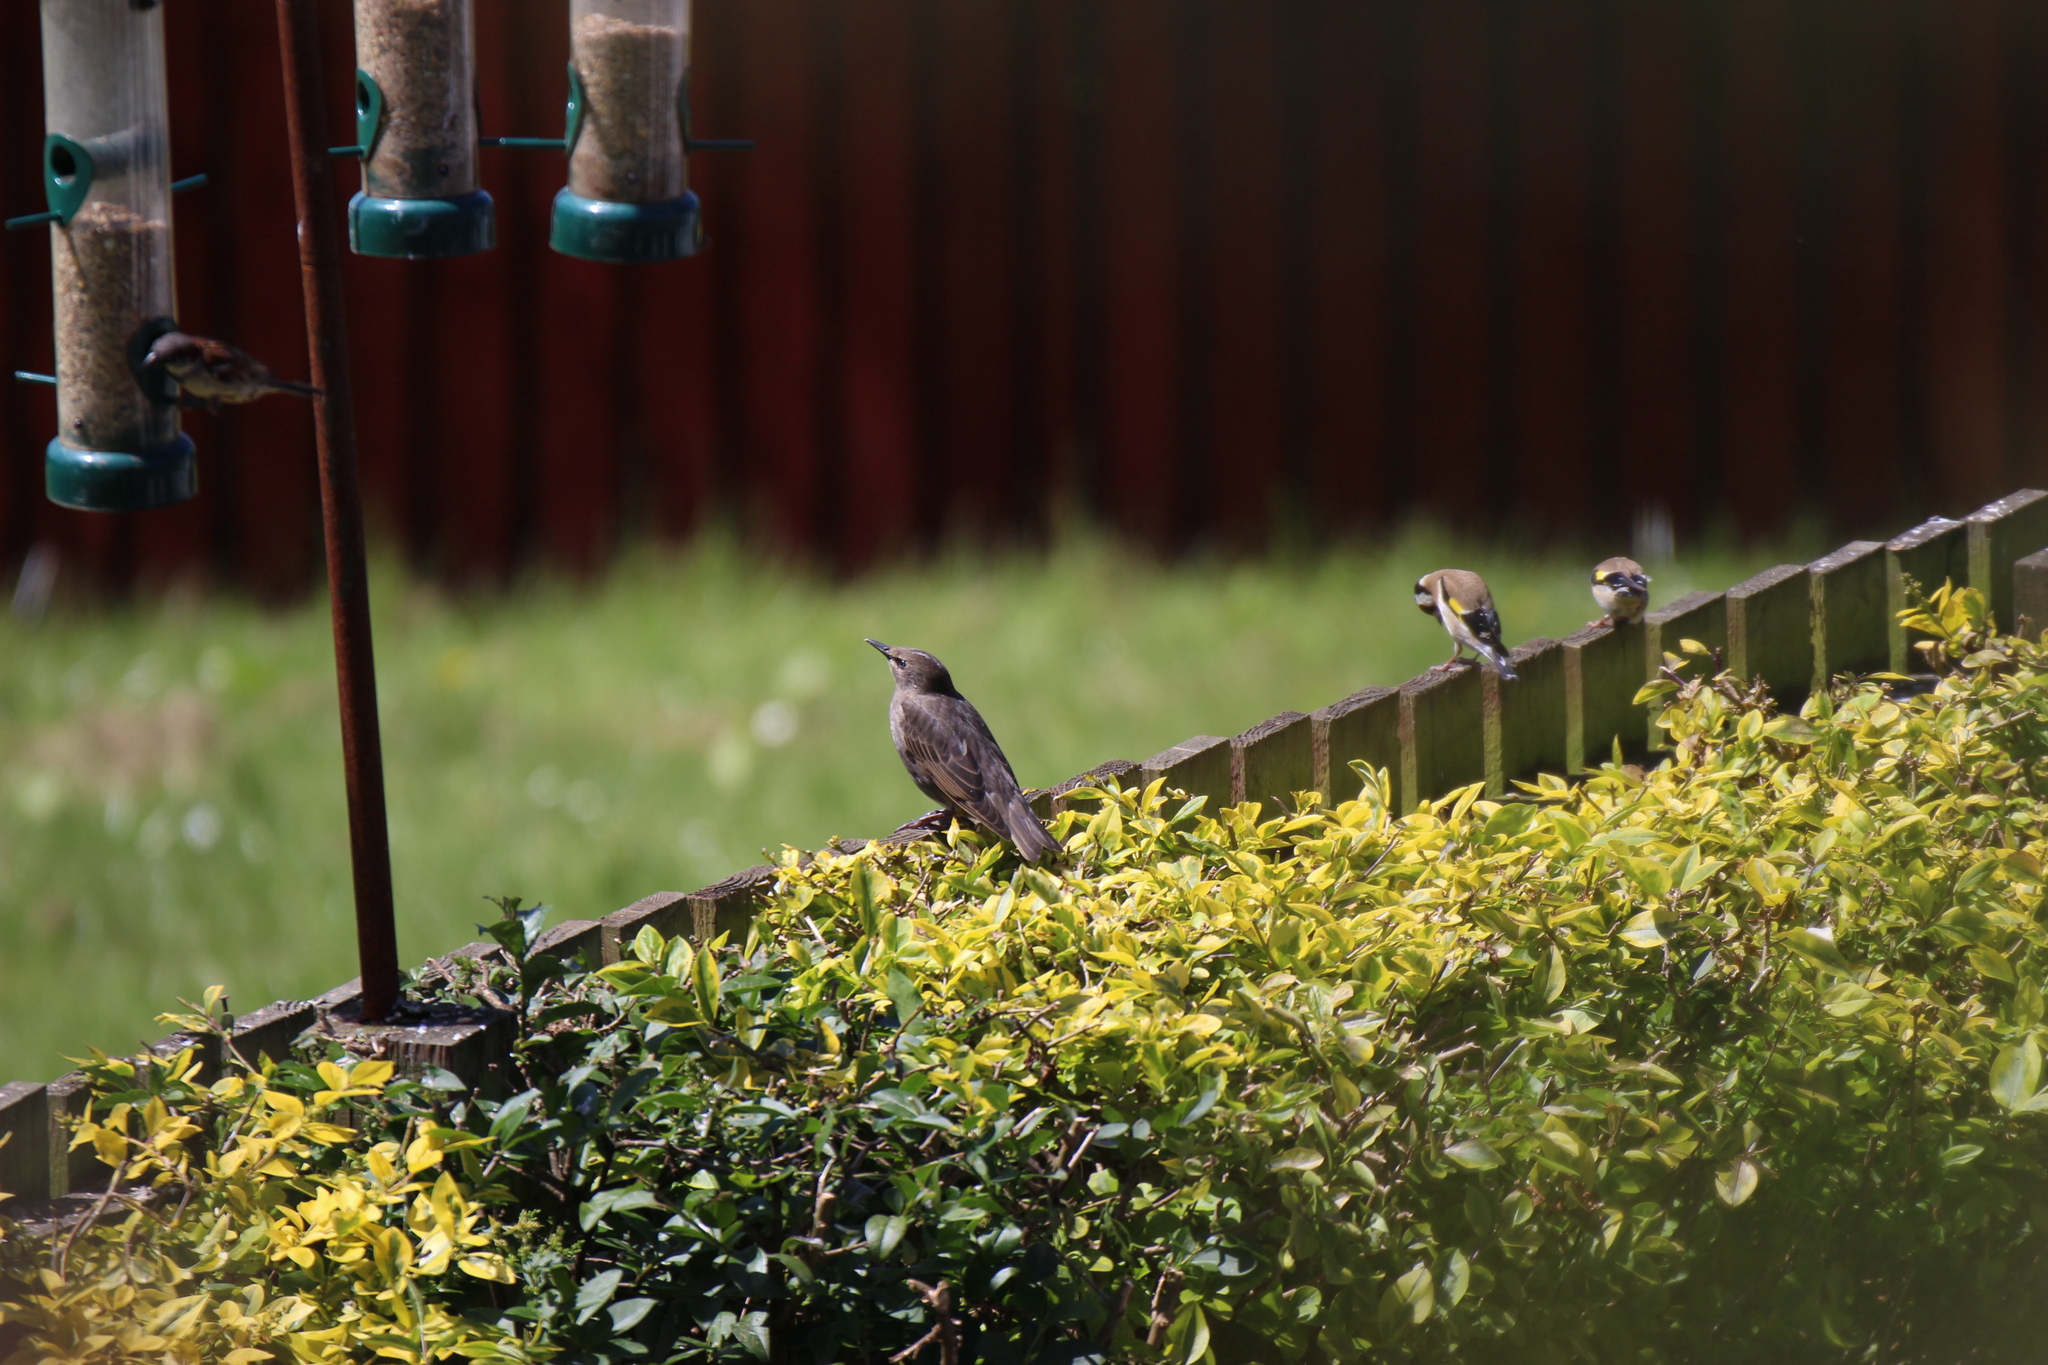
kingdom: Animalia
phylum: Chordata
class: Aves
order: Passeriformes
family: Sturnidae
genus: Sturnus
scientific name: Sturnus vulgaris
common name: Common starling
